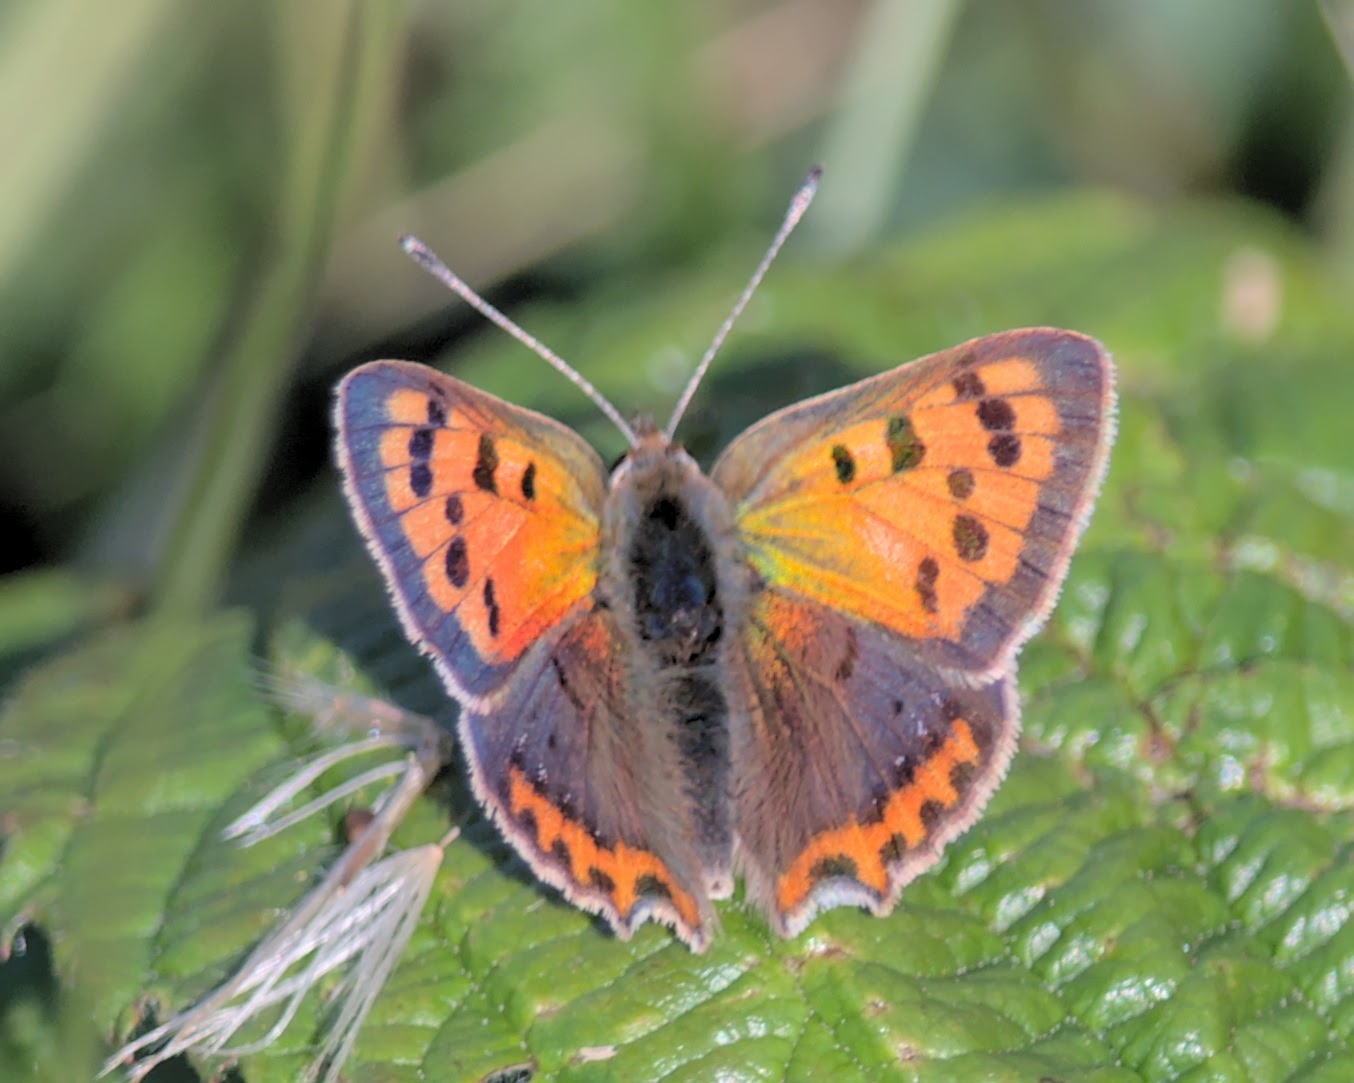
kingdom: Animalia
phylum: Arthropoda
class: Insecta
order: Lepidoptera
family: Lycaenidae
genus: Lycaena
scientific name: Lycaena phlaeas
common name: Small copper
